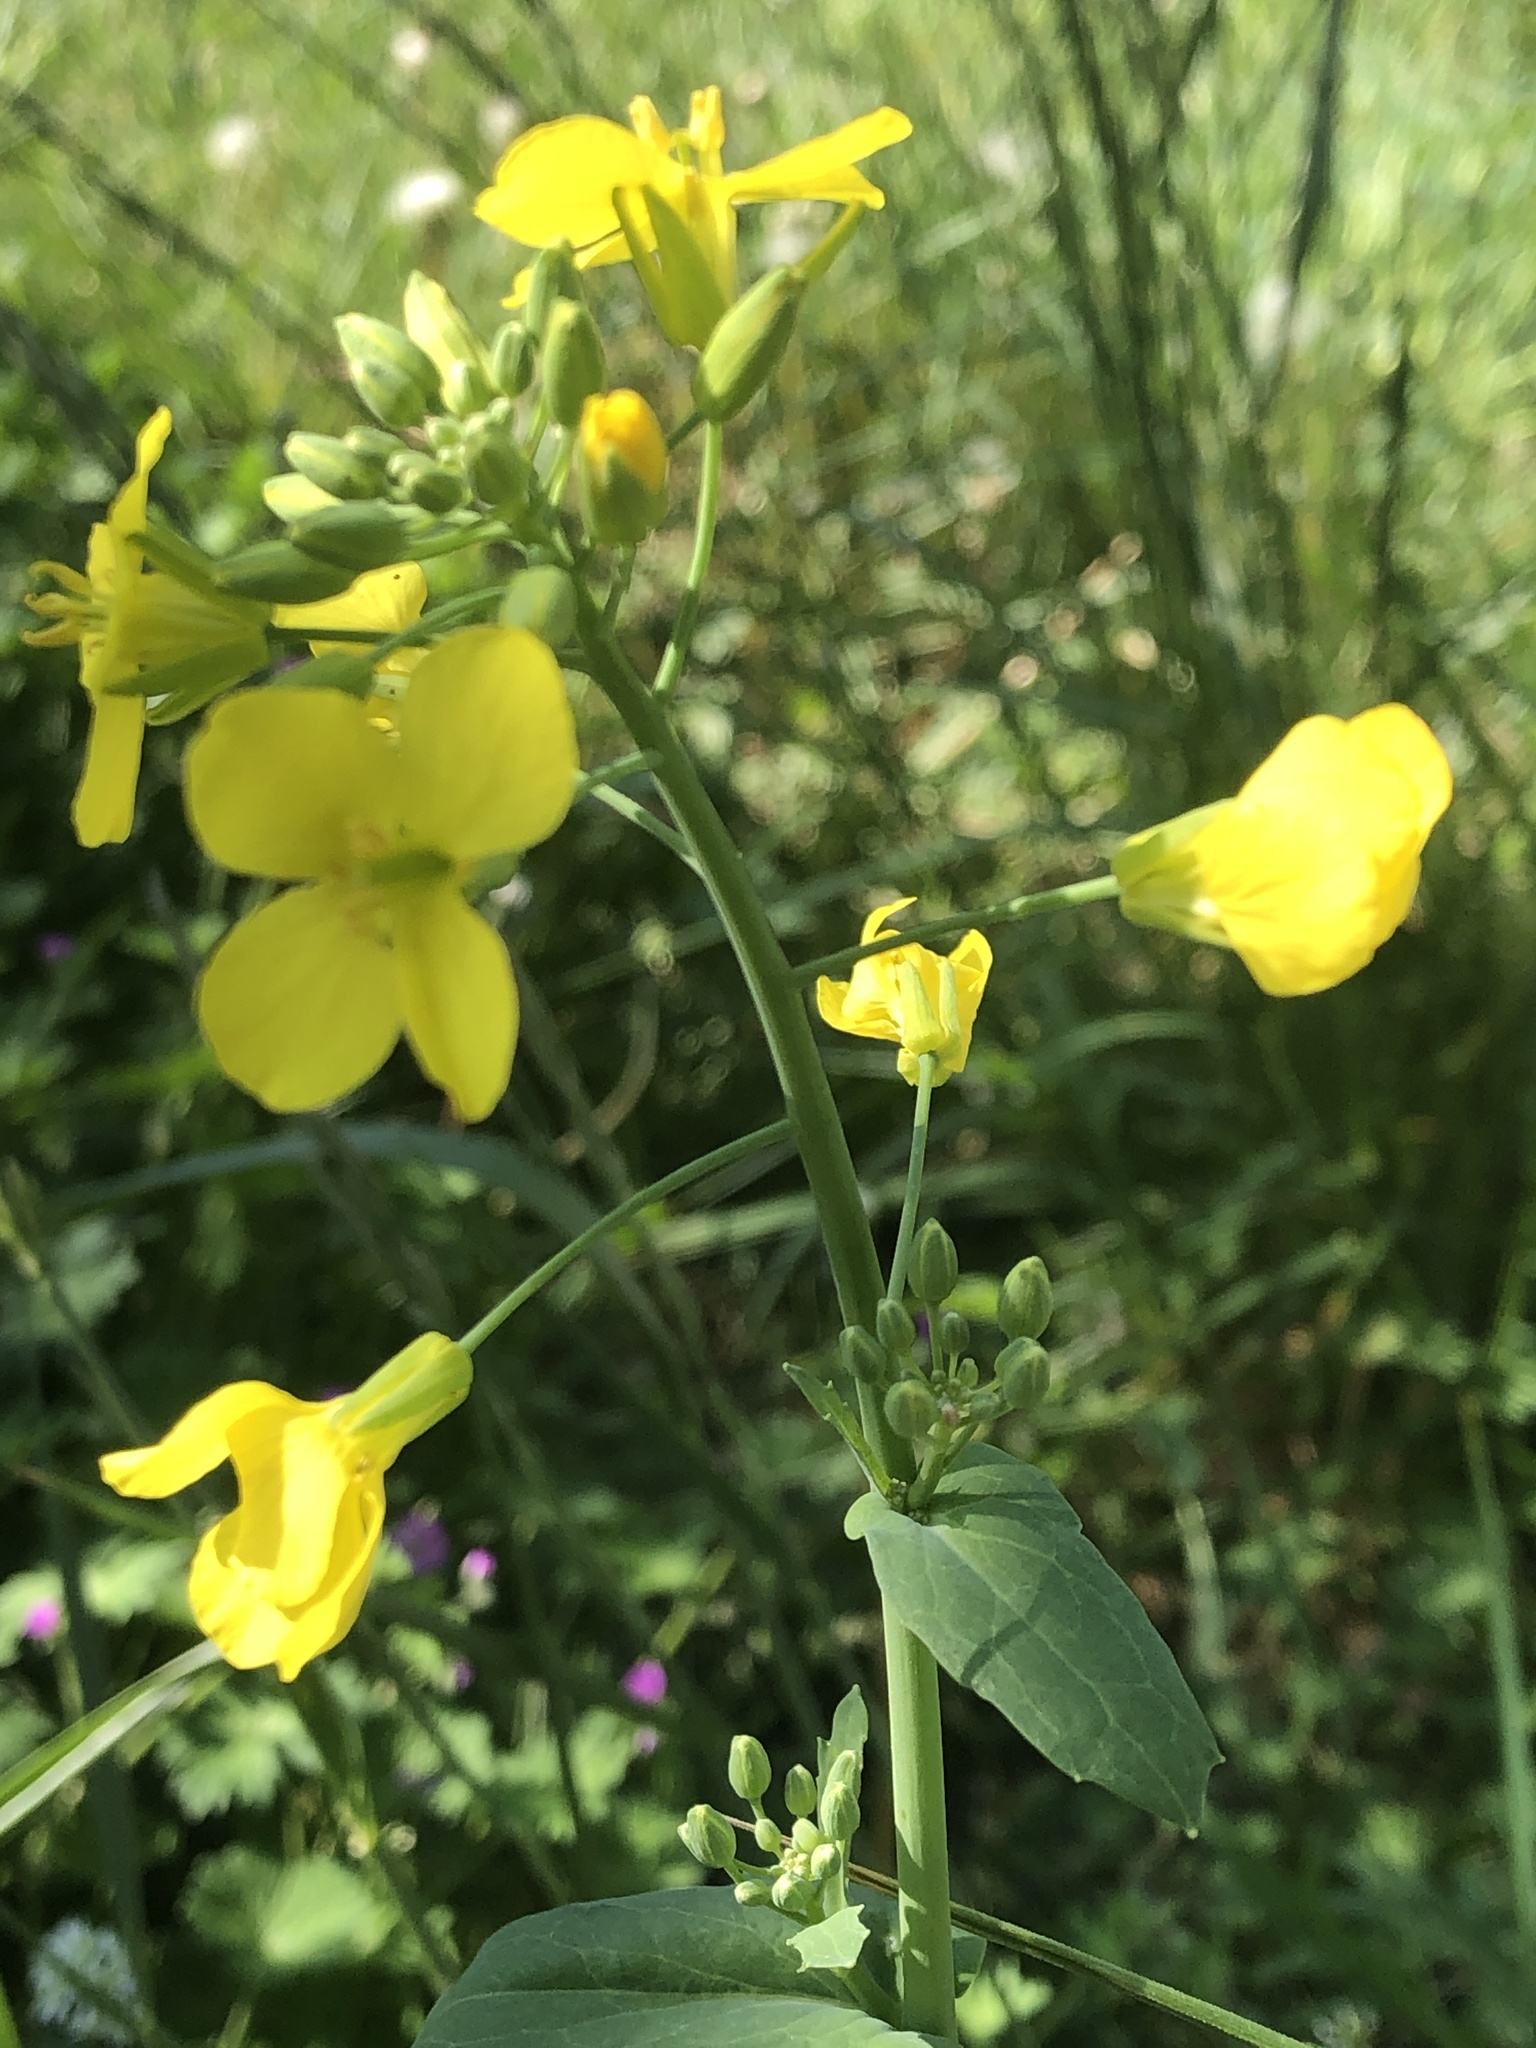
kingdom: Plantae
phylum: Tracheophyta
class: Magnoliopsida
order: Brassicales
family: Brassicaceae
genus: Brassica
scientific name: Brassica napus
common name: Rape
